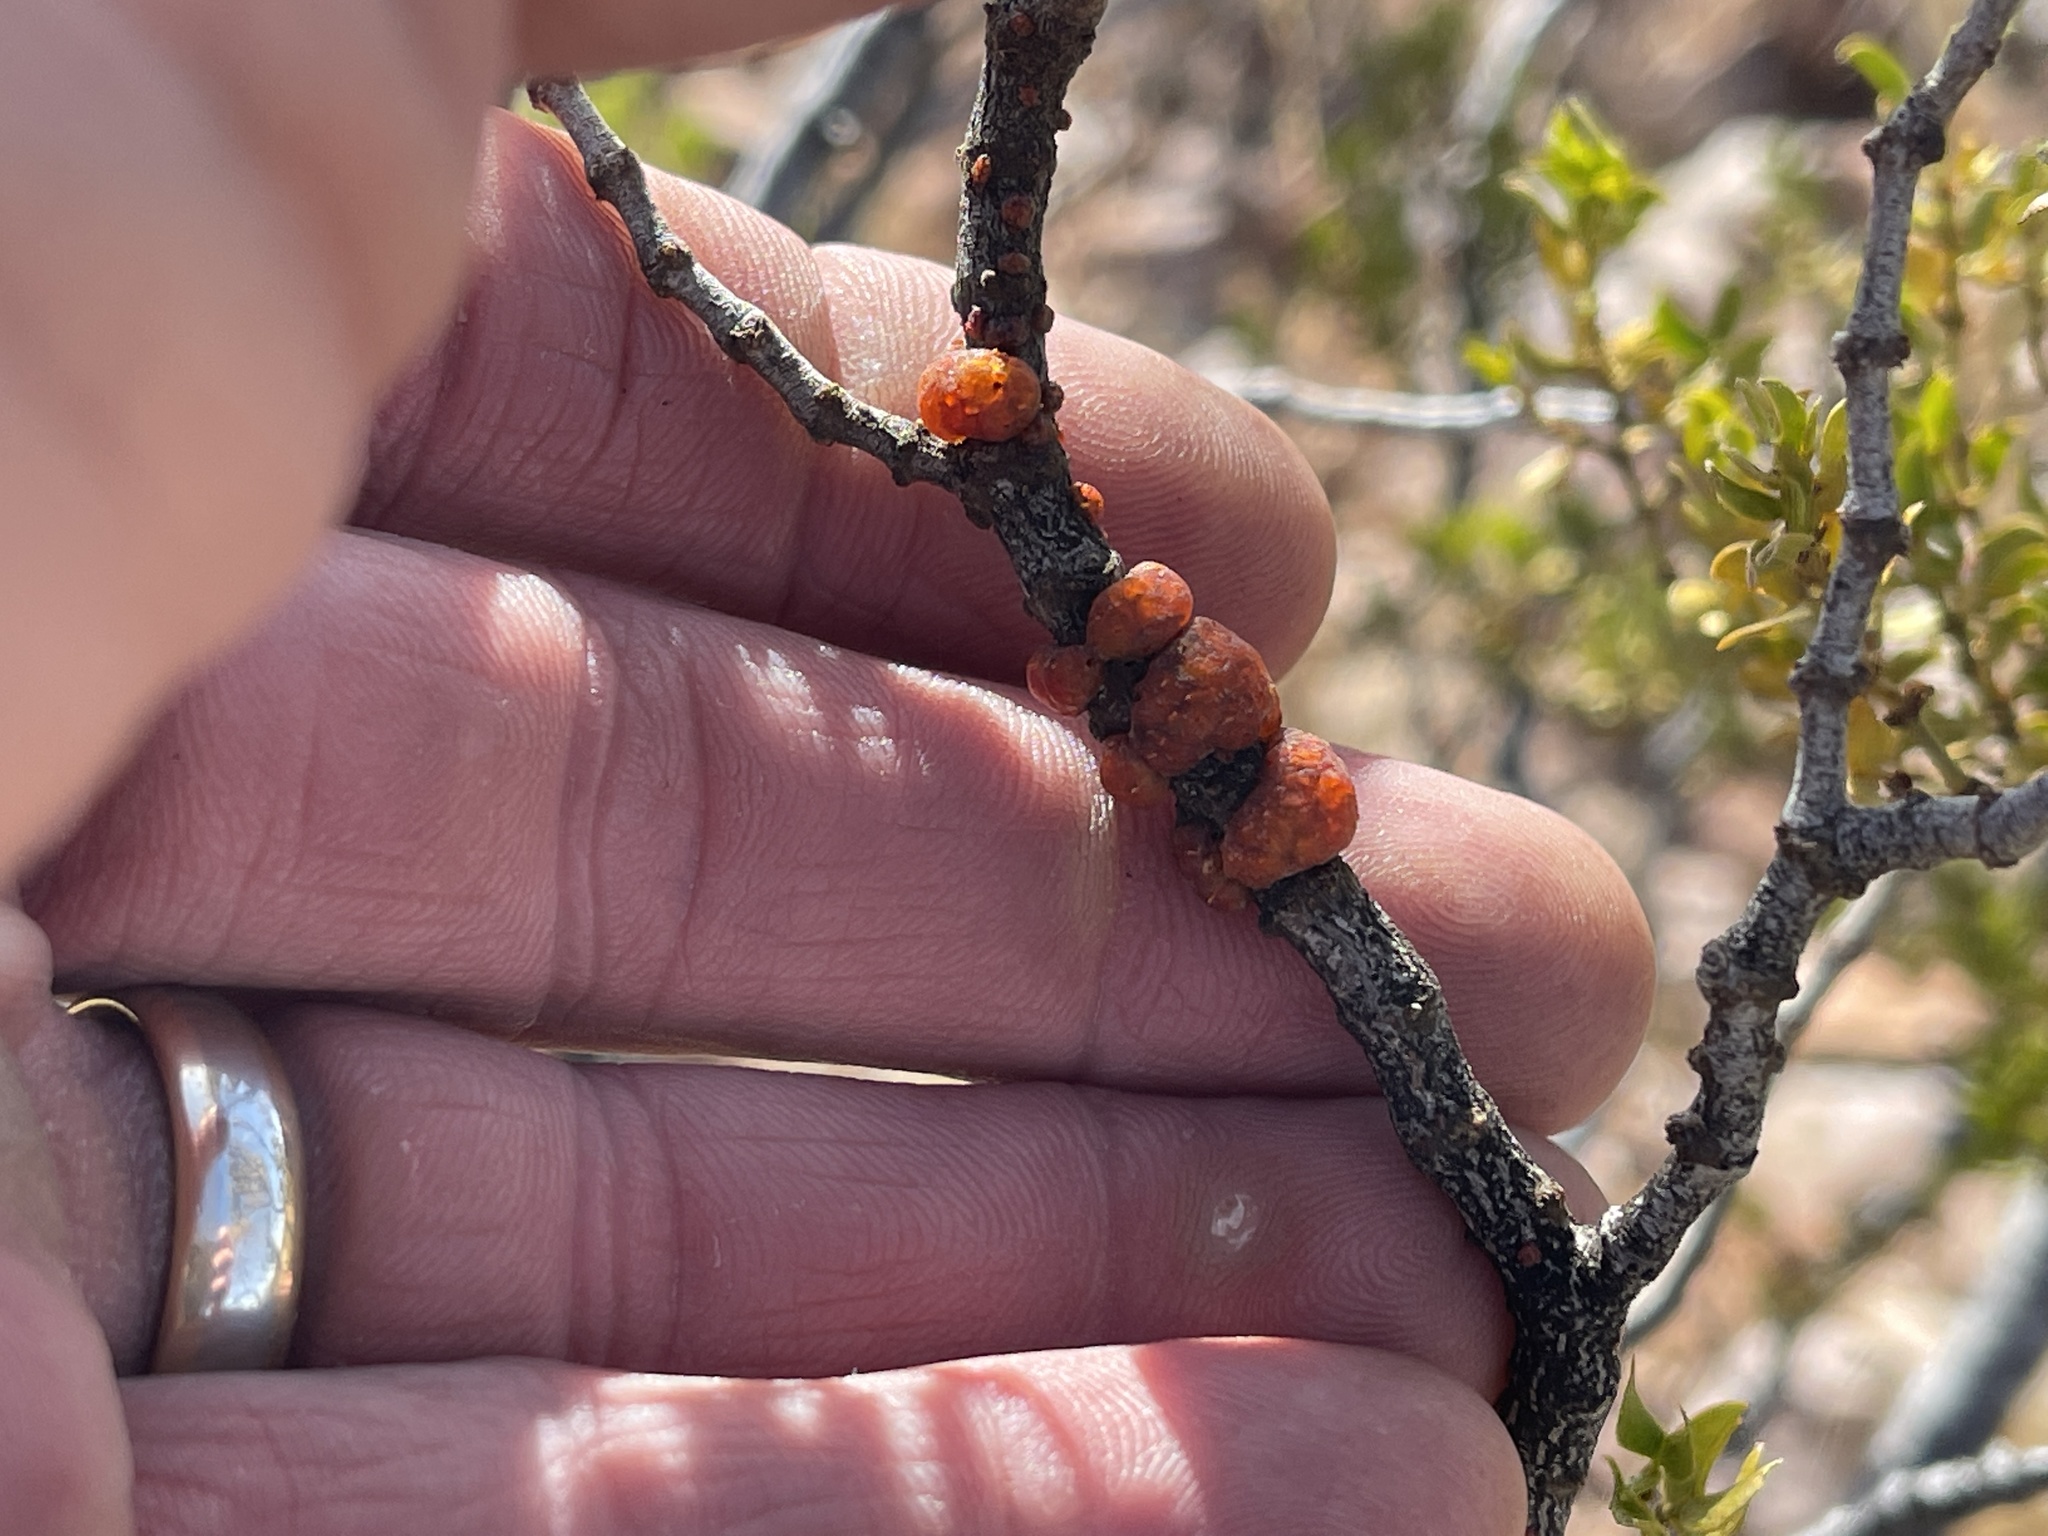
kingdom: Animalia
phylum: Arthropoda
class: Insecta
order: Hemiptera
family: Kerriidae
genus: Tachardiella
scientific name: Tachardiella larreae
